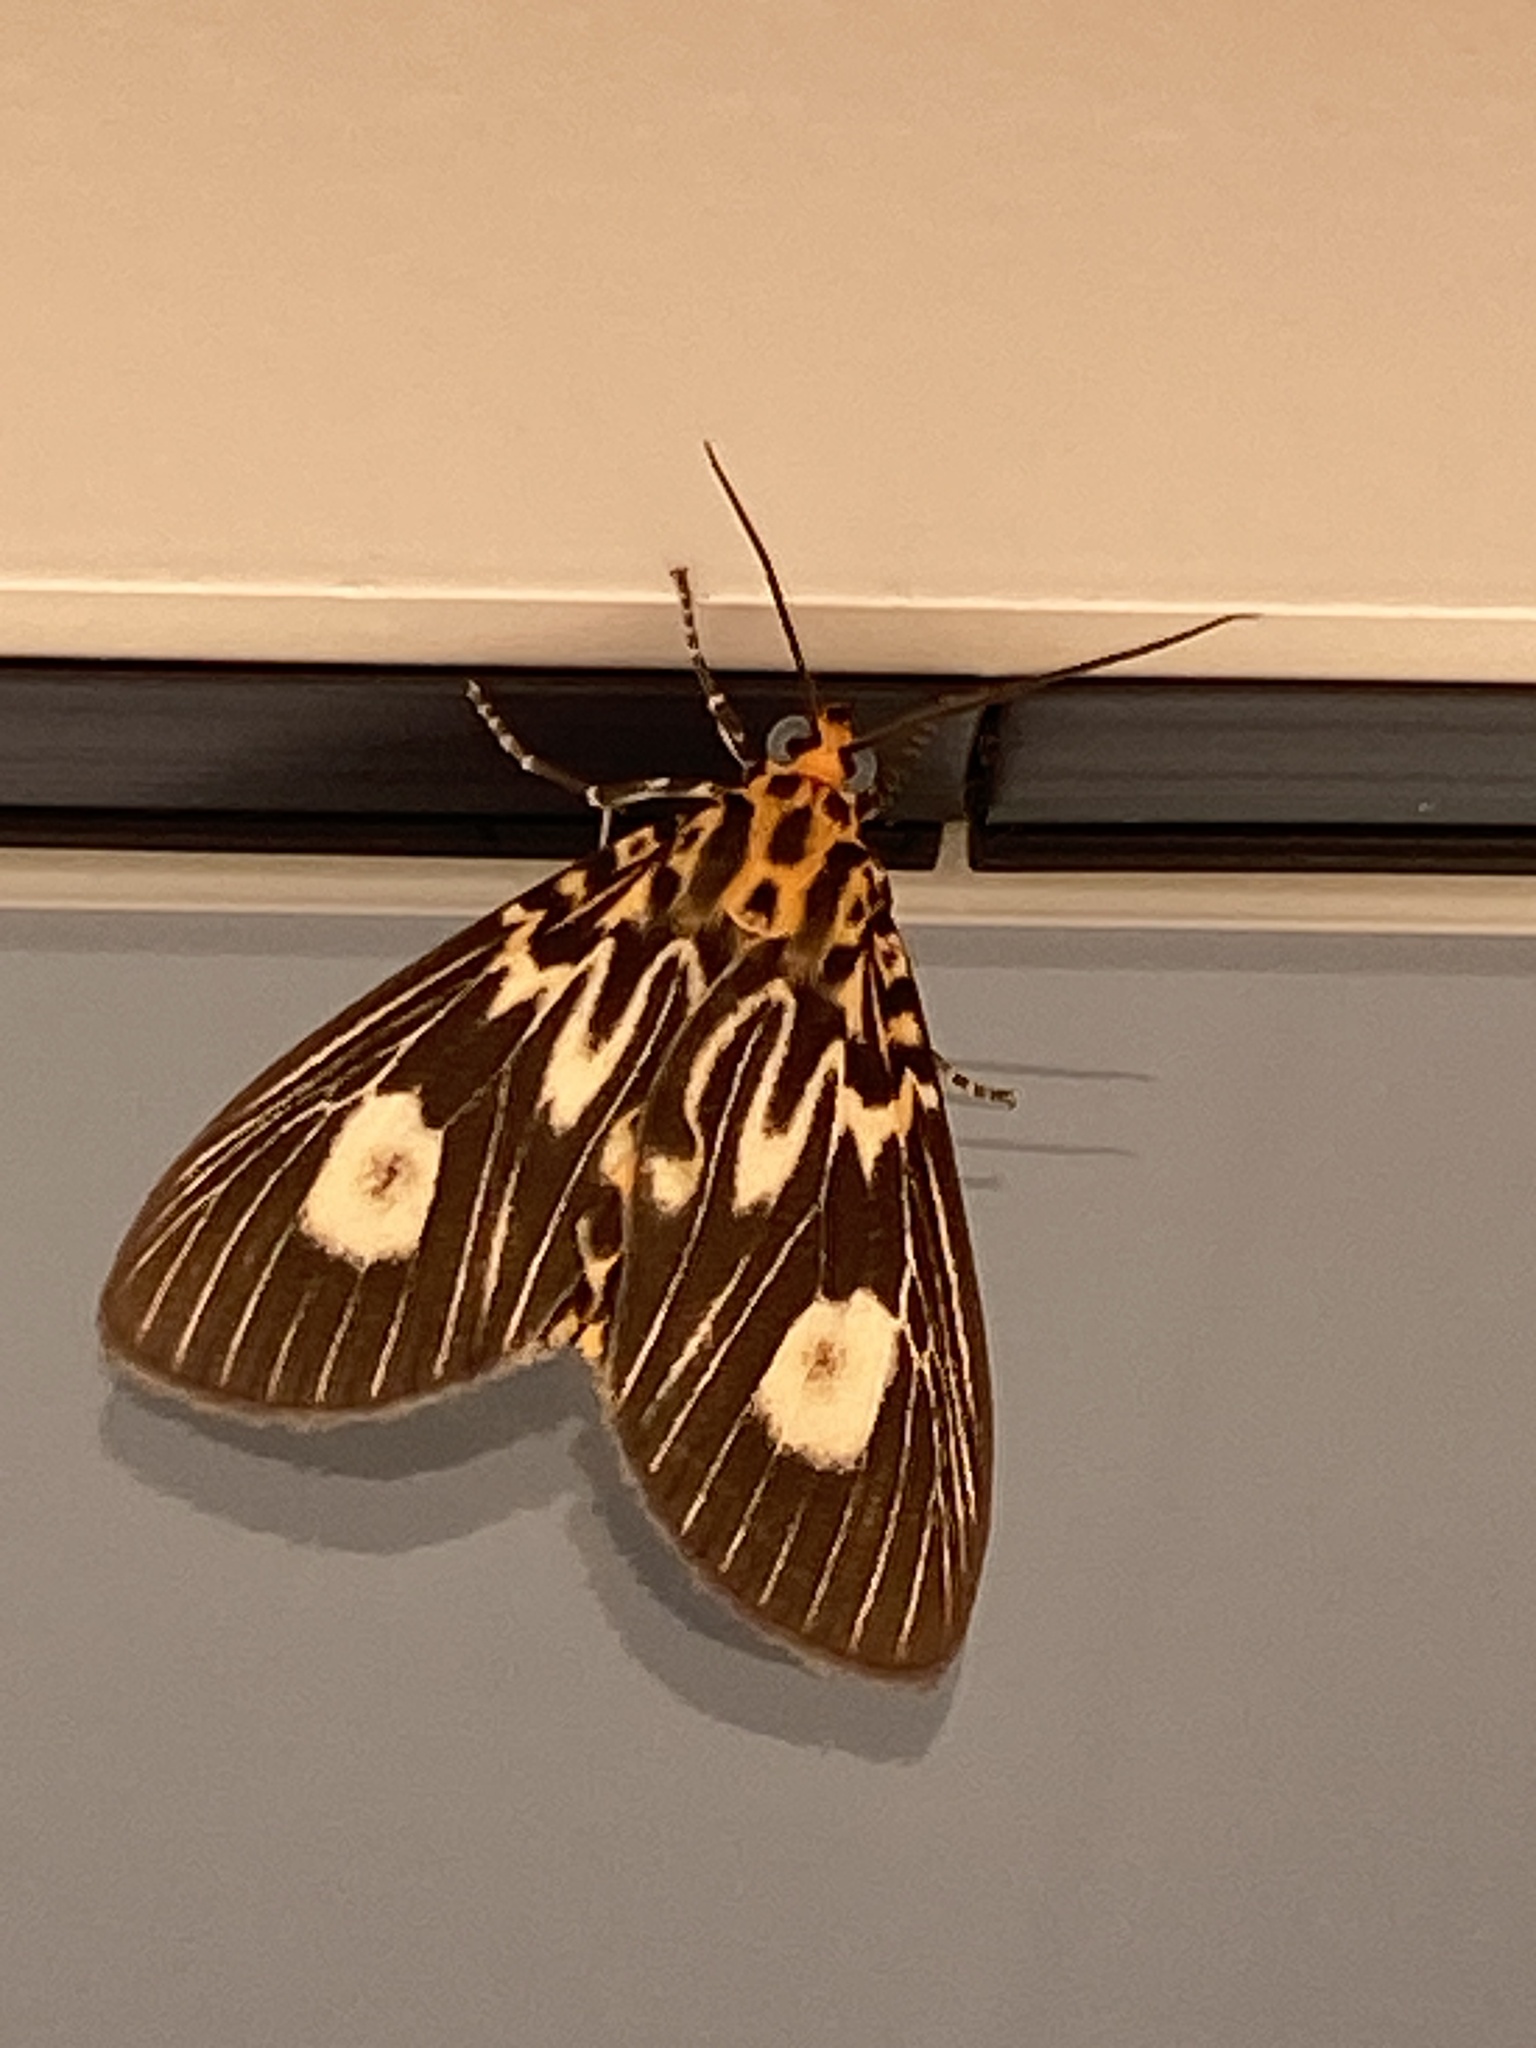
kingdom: Animalia
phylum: Arthropoda
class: Insecta
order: Lepidoptera
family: Erebidae
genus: Asota
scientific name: Asota plagiata
